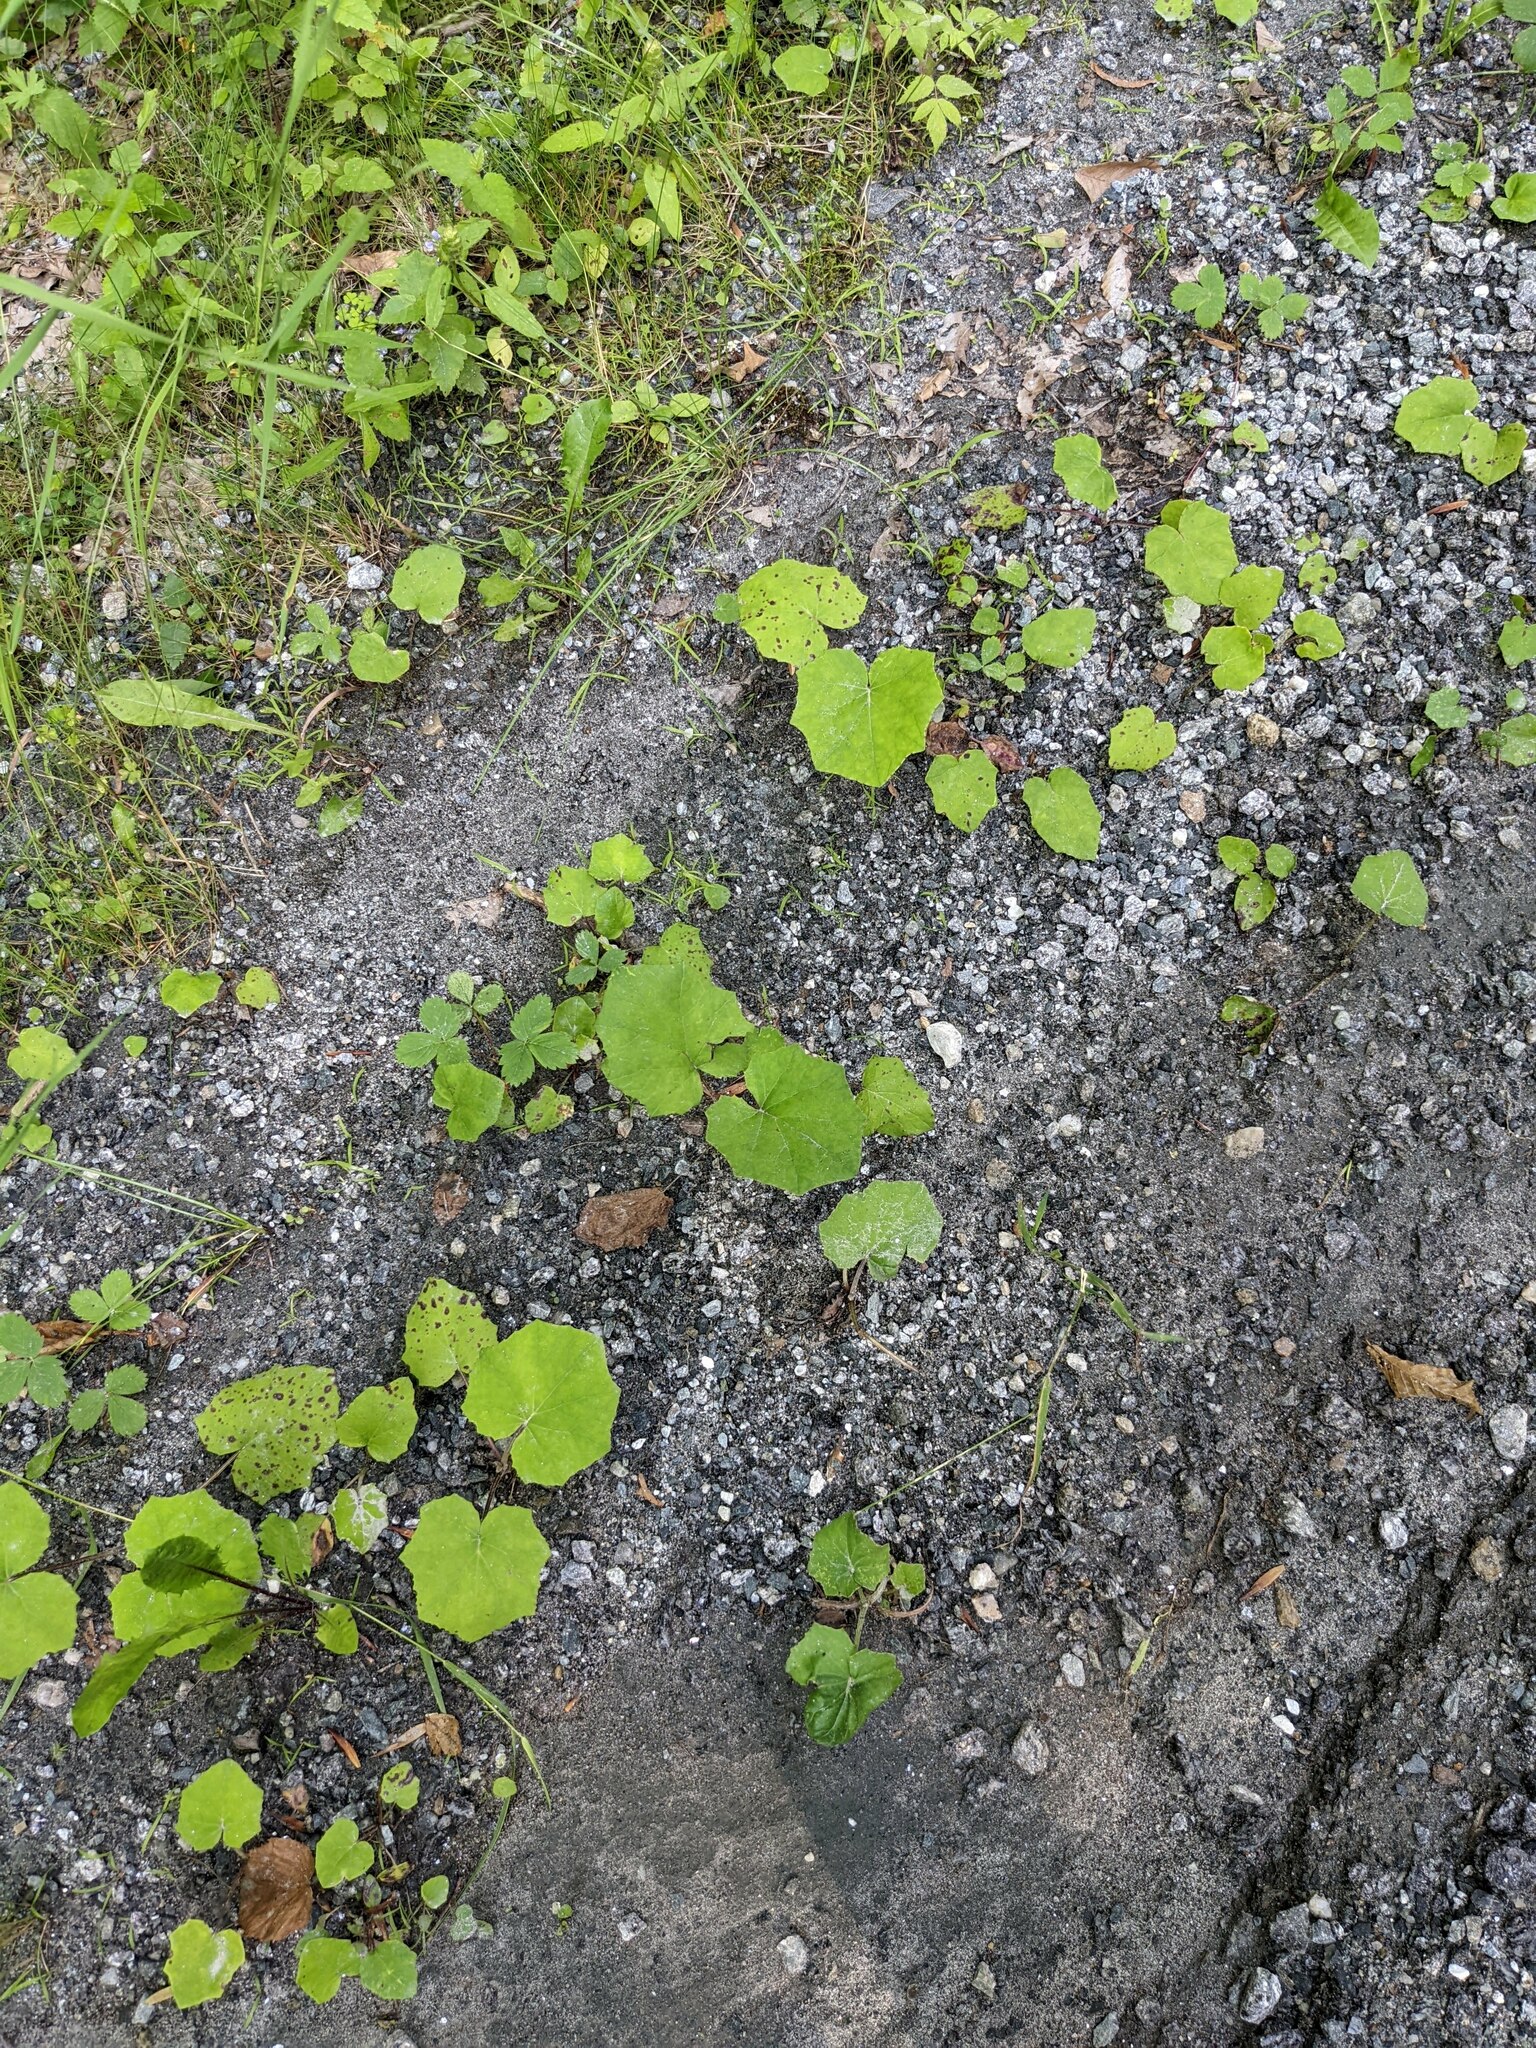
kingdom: Plantae
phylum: Tracheophyta
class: Magnoliopsida
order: Asterales
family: Asteraceae
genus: Tussilago
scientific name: Tussilago farfara
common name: Coltsfoot
